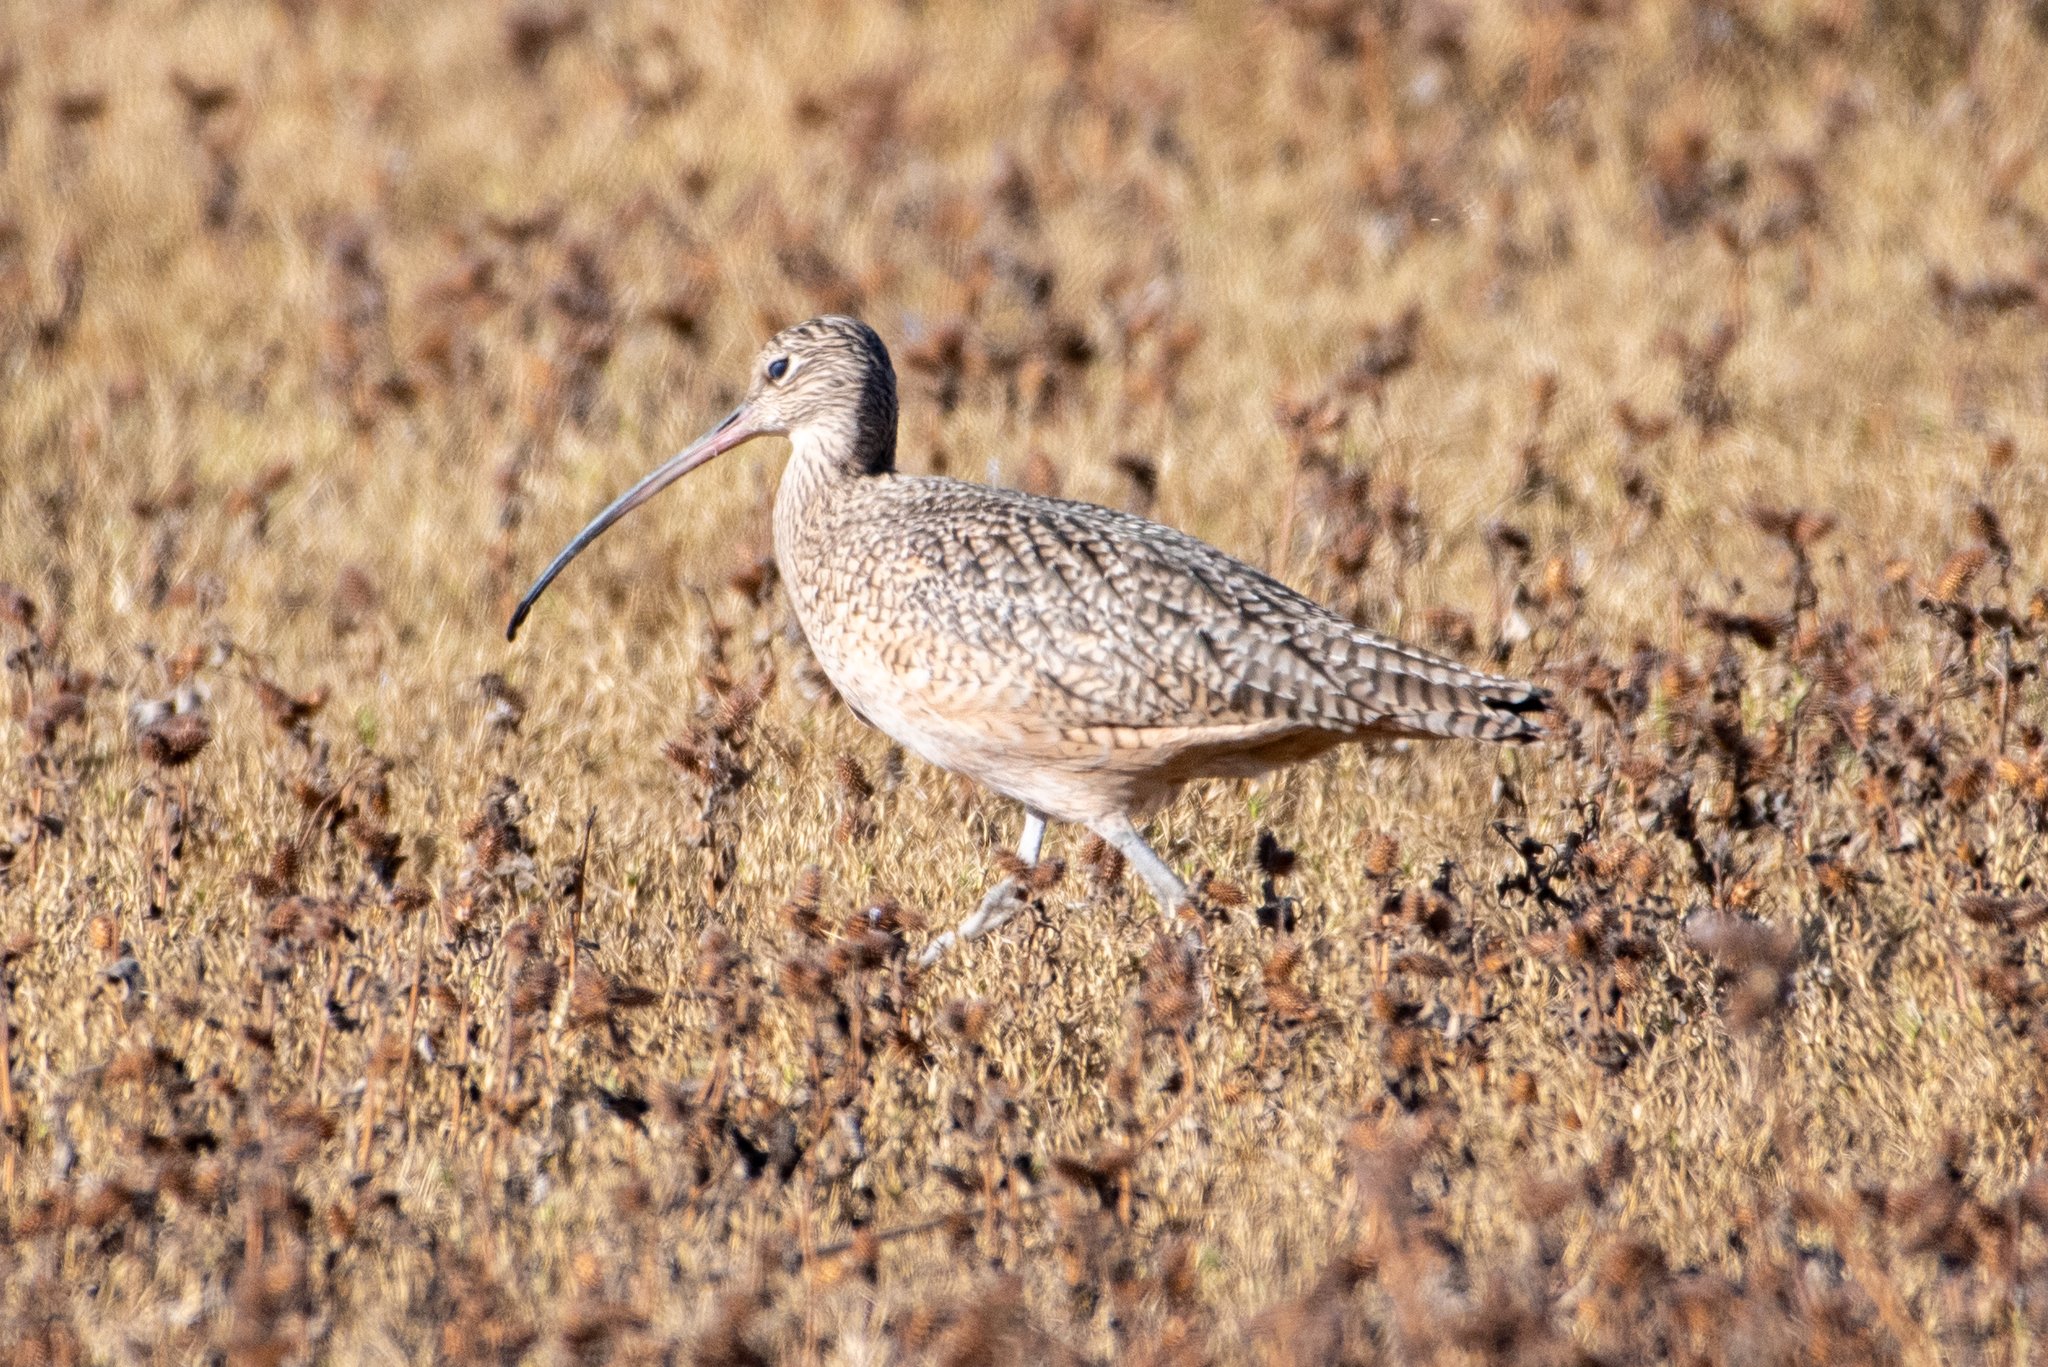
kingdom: Animalia
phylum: Chordata
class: Aves
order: Charadriiformes
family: Scolopacidae
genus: Numenius
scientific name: Numenius americanus
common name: Long-billed curlew
